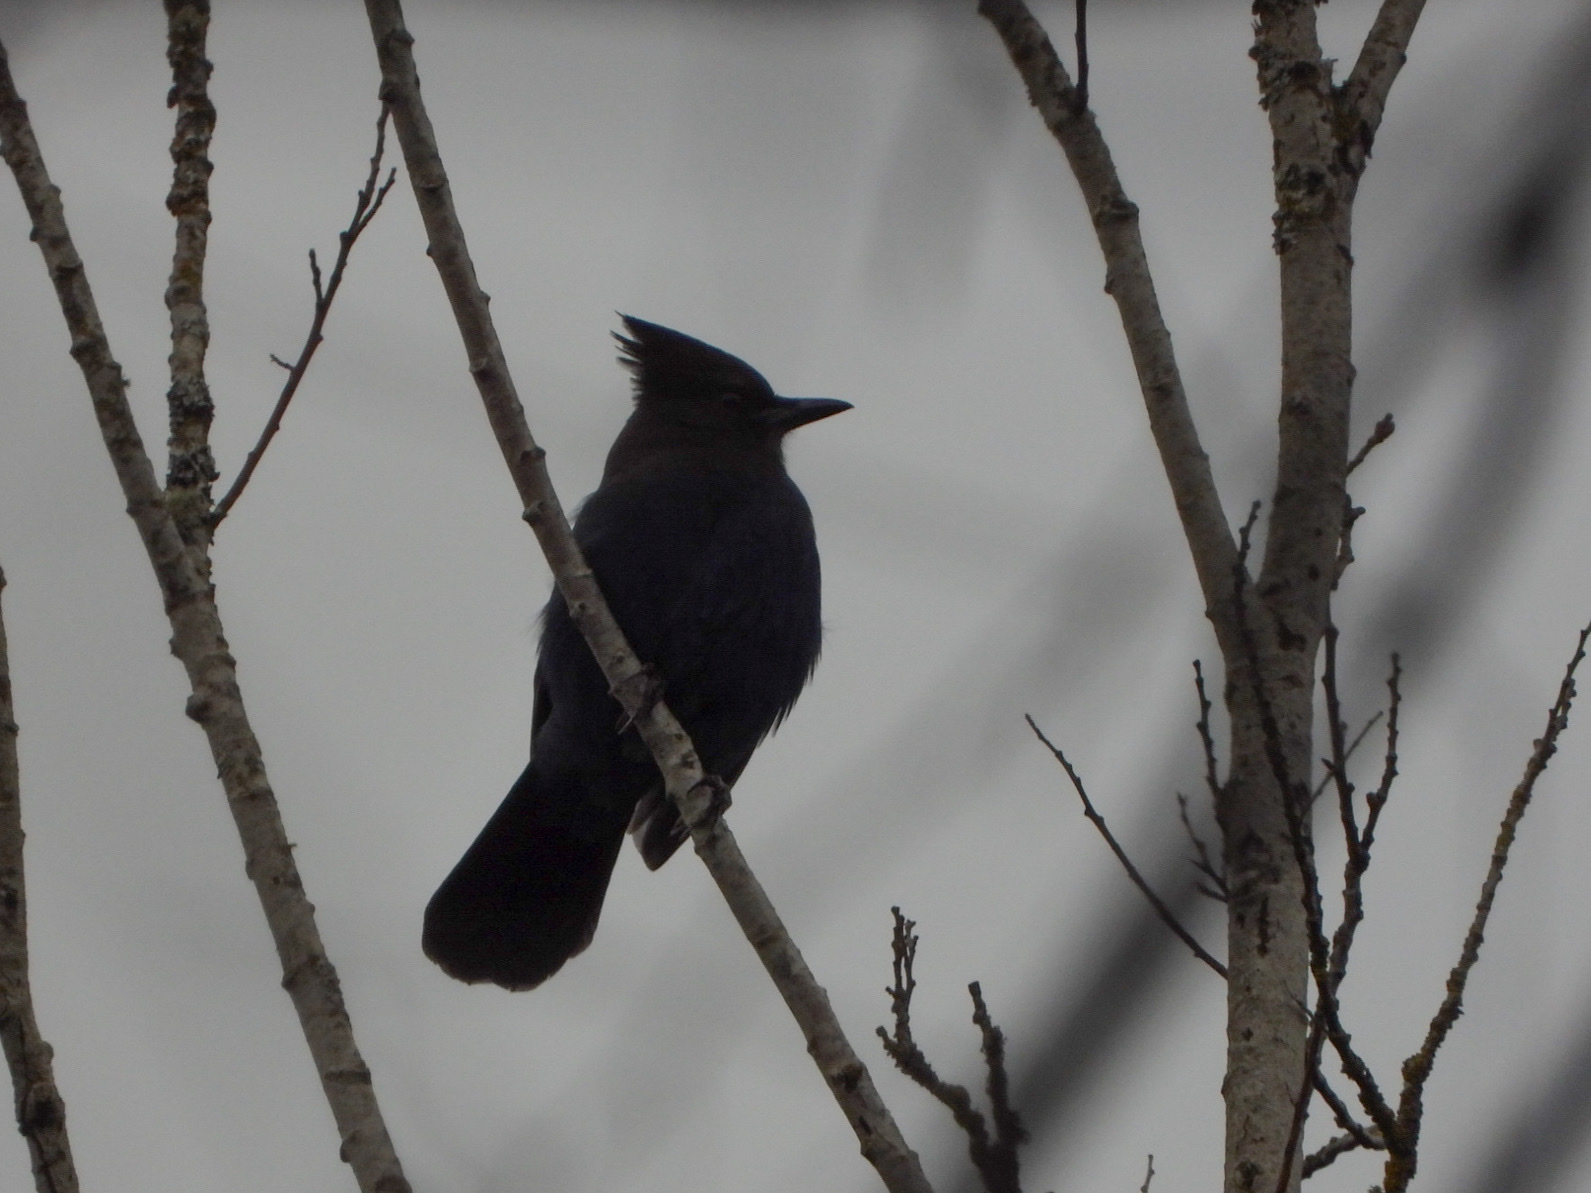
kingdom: Animalia
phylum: Chordata
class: Aves
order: Passeriformes
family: Corvidae
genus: Cyanocitta
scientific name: Cyanocitta stelleri
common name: Steller's jay
